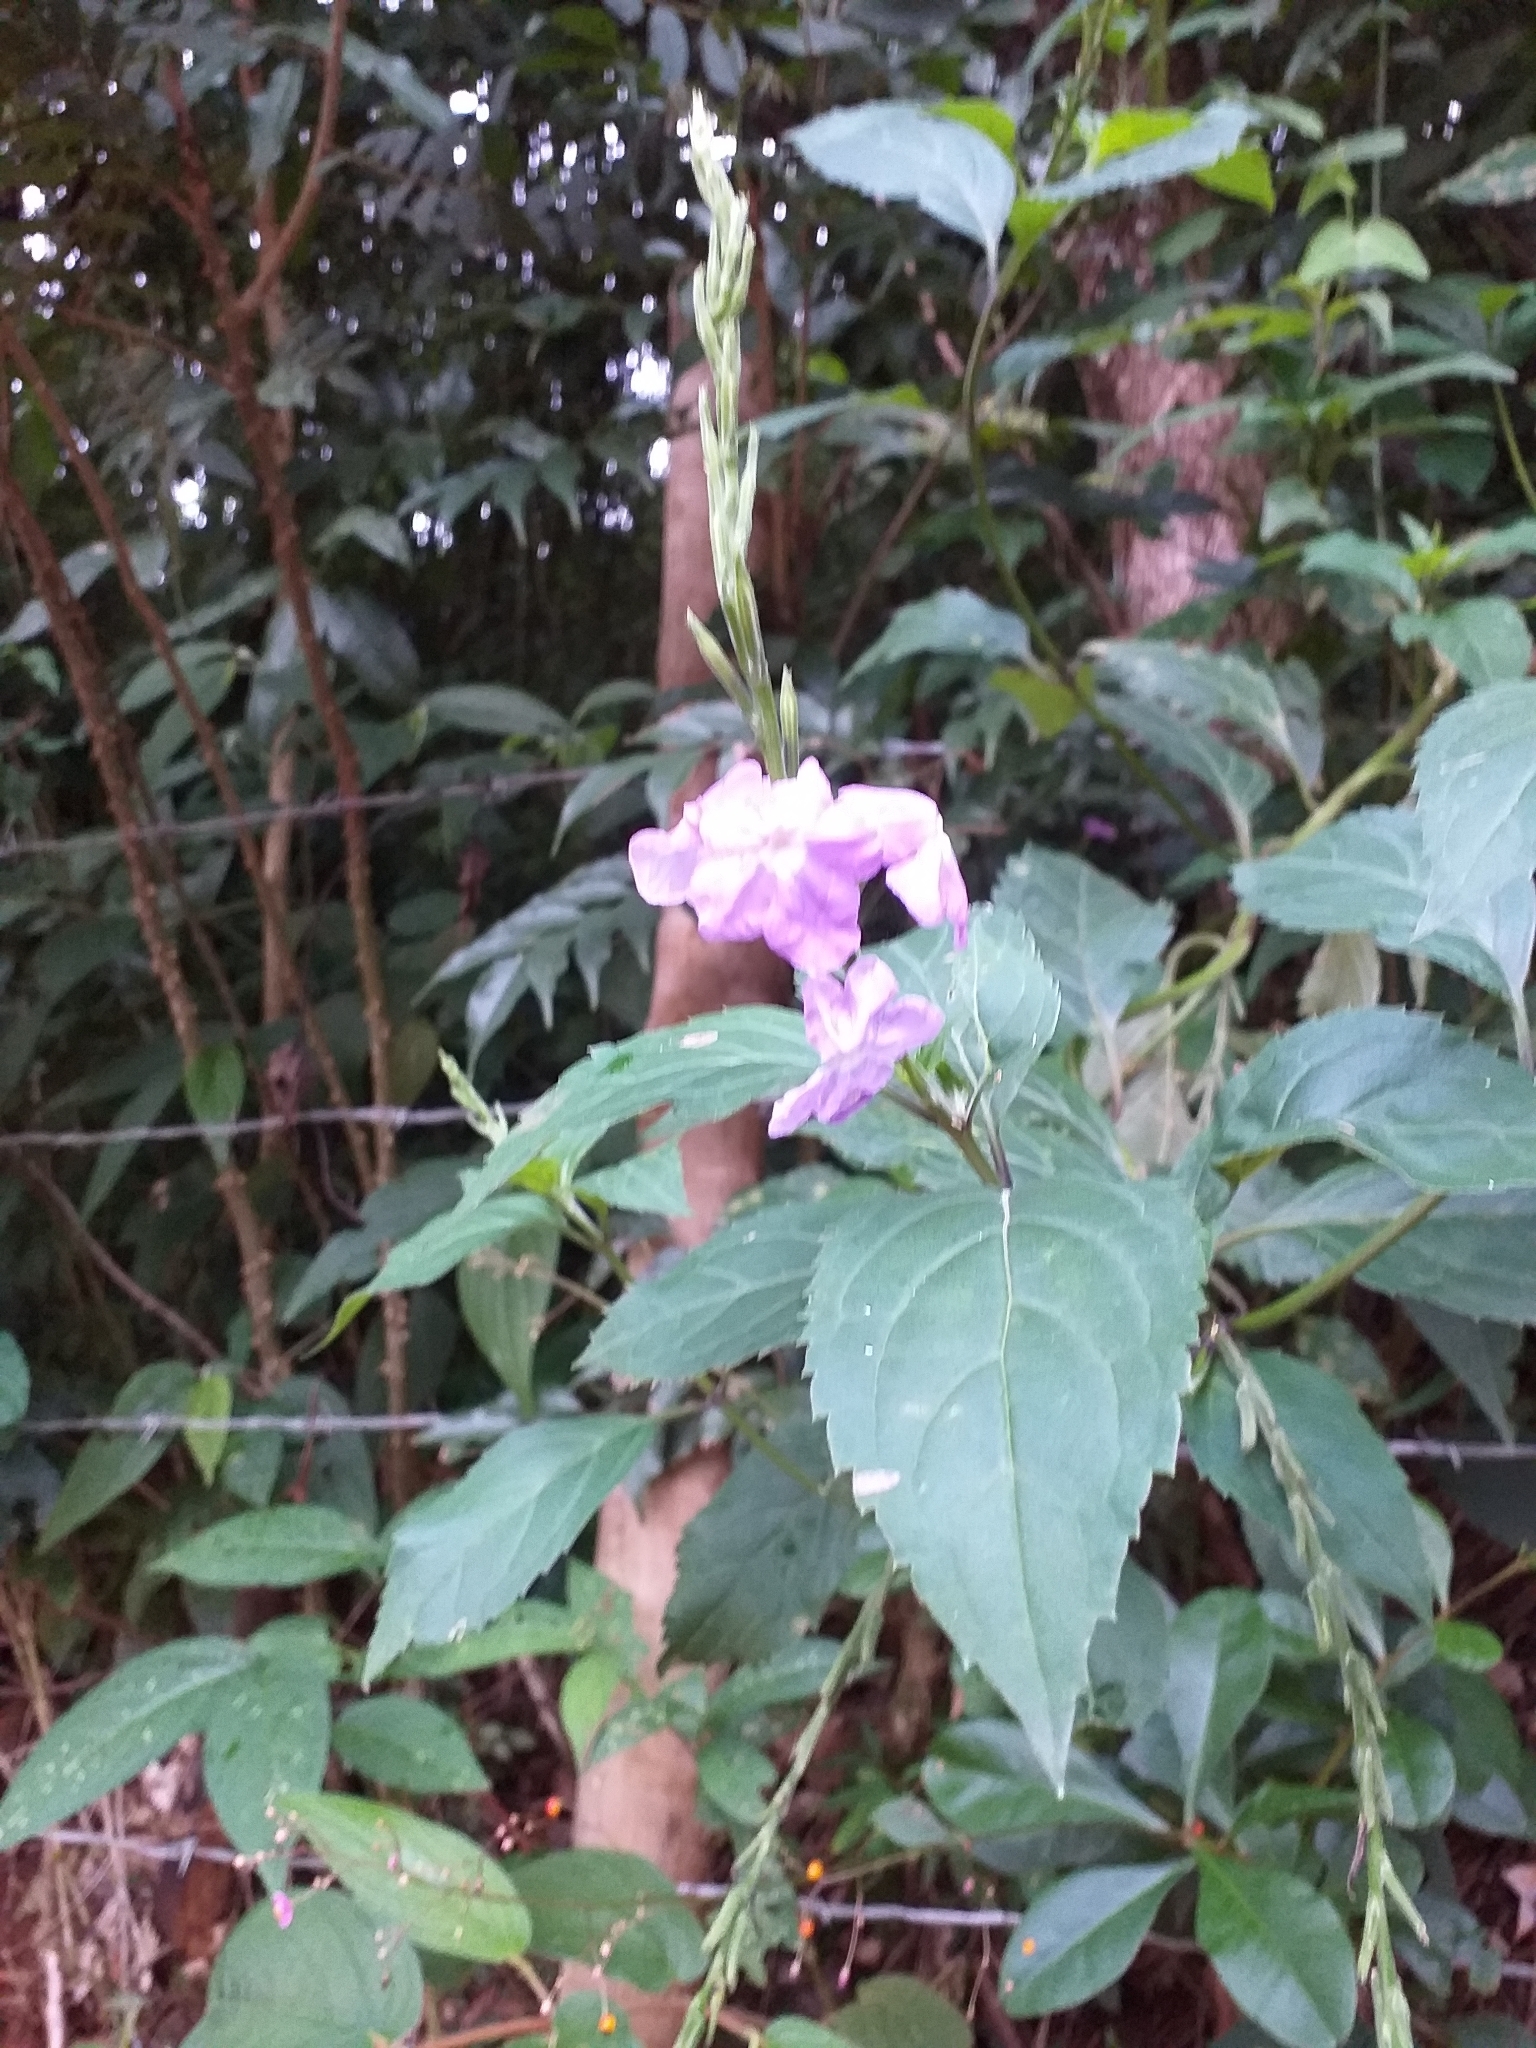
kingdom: Plantae
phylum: Tracheophyta
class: Magnoliopsida
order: Lamiales
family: Verbenaceae
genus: Bouchea
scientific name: Bouchea pseudogervao
